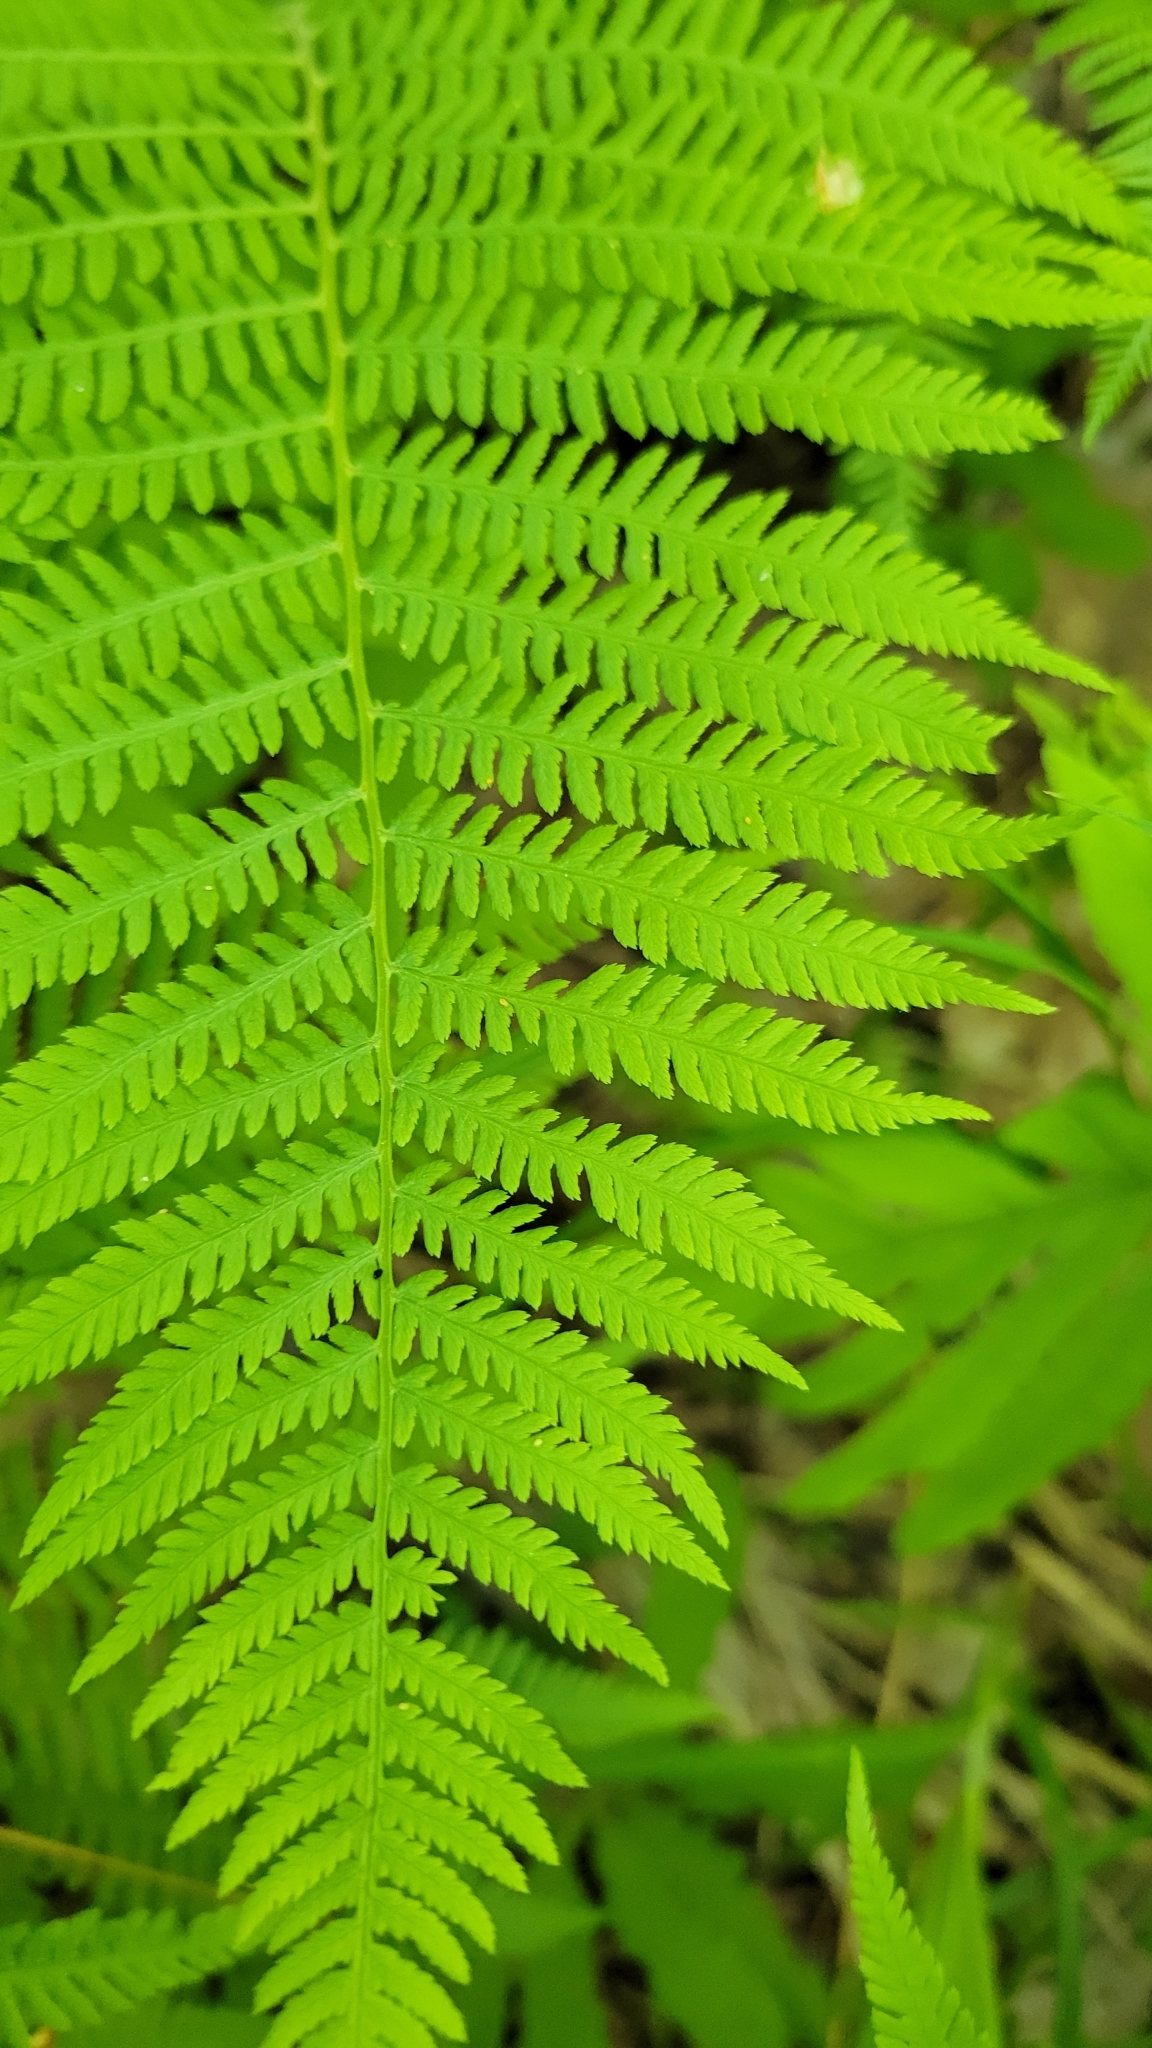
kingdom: Plantae
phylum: Tracheophyta
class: Polypodiopsida
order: Polypodiales
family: Athyriaceae
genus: Athyrium
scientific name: Athyrium angustum
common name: Northern lady fern
